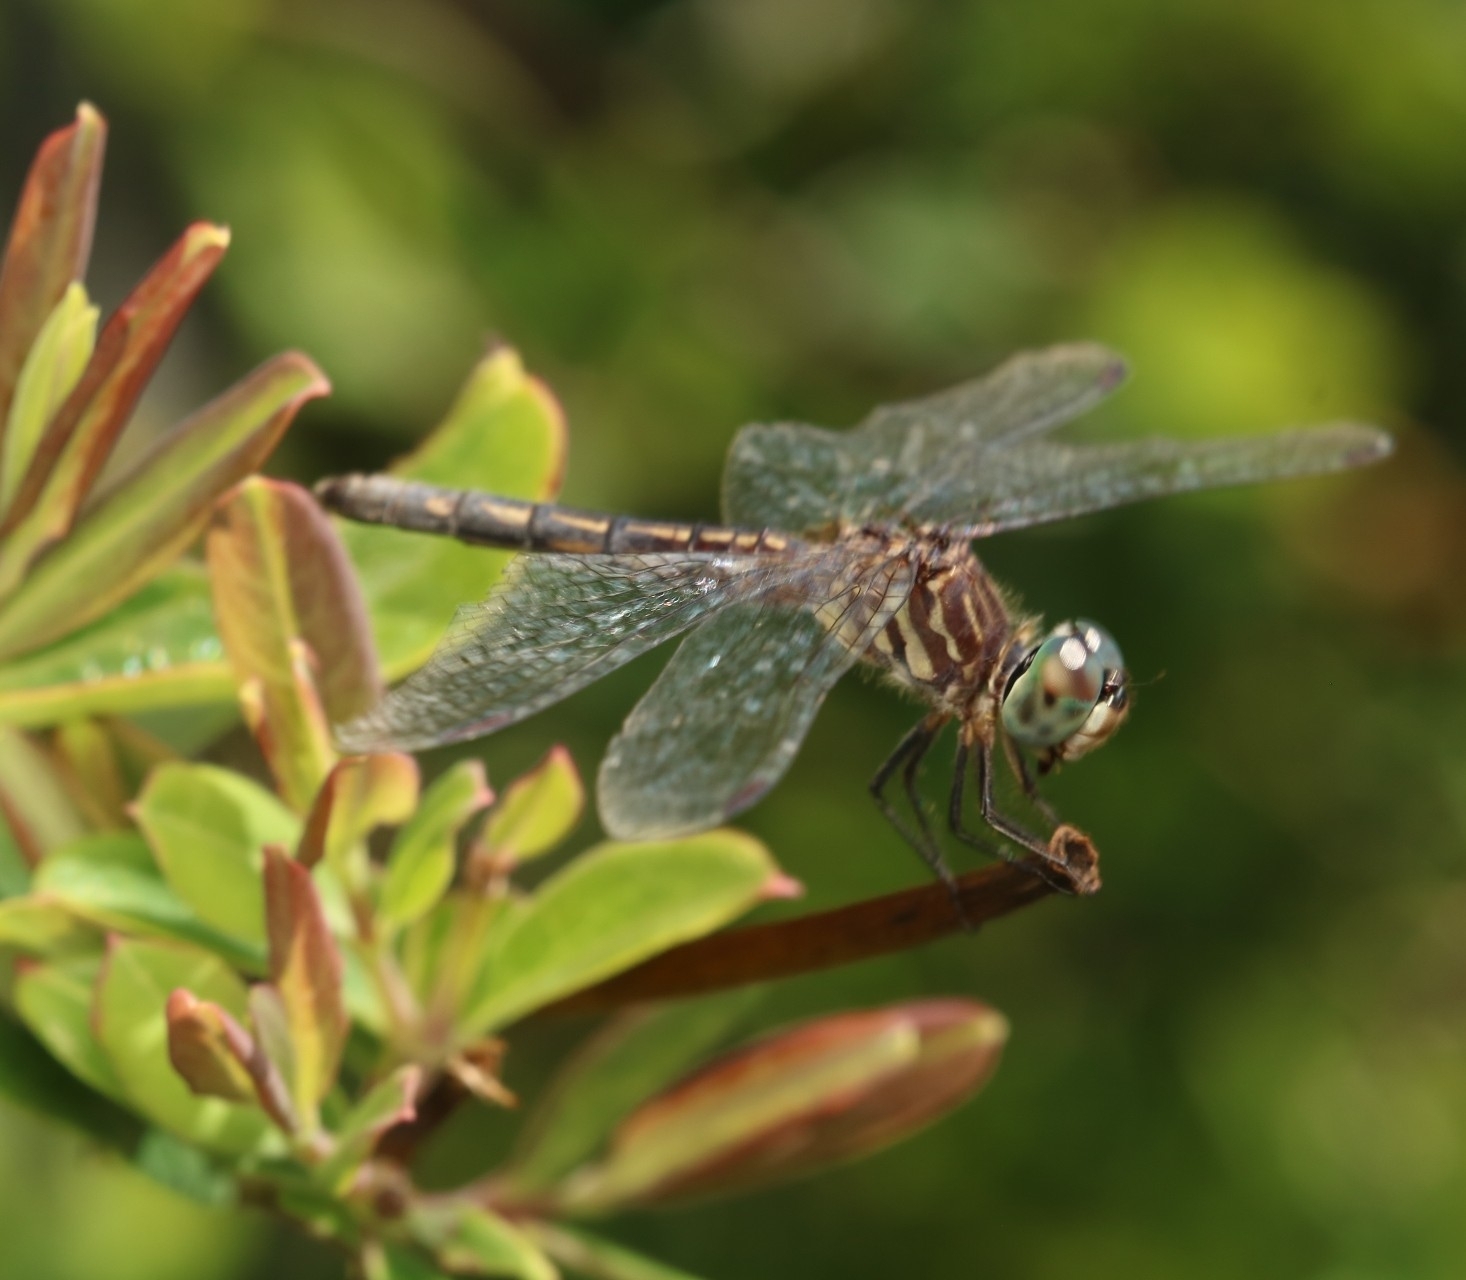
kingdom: Animalia
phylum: Arthropoda
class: Insecta
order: Odonata
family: Libellulidae
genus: Pachydiplax
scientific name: Pachydiplax longipennis
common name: Blue dasher
